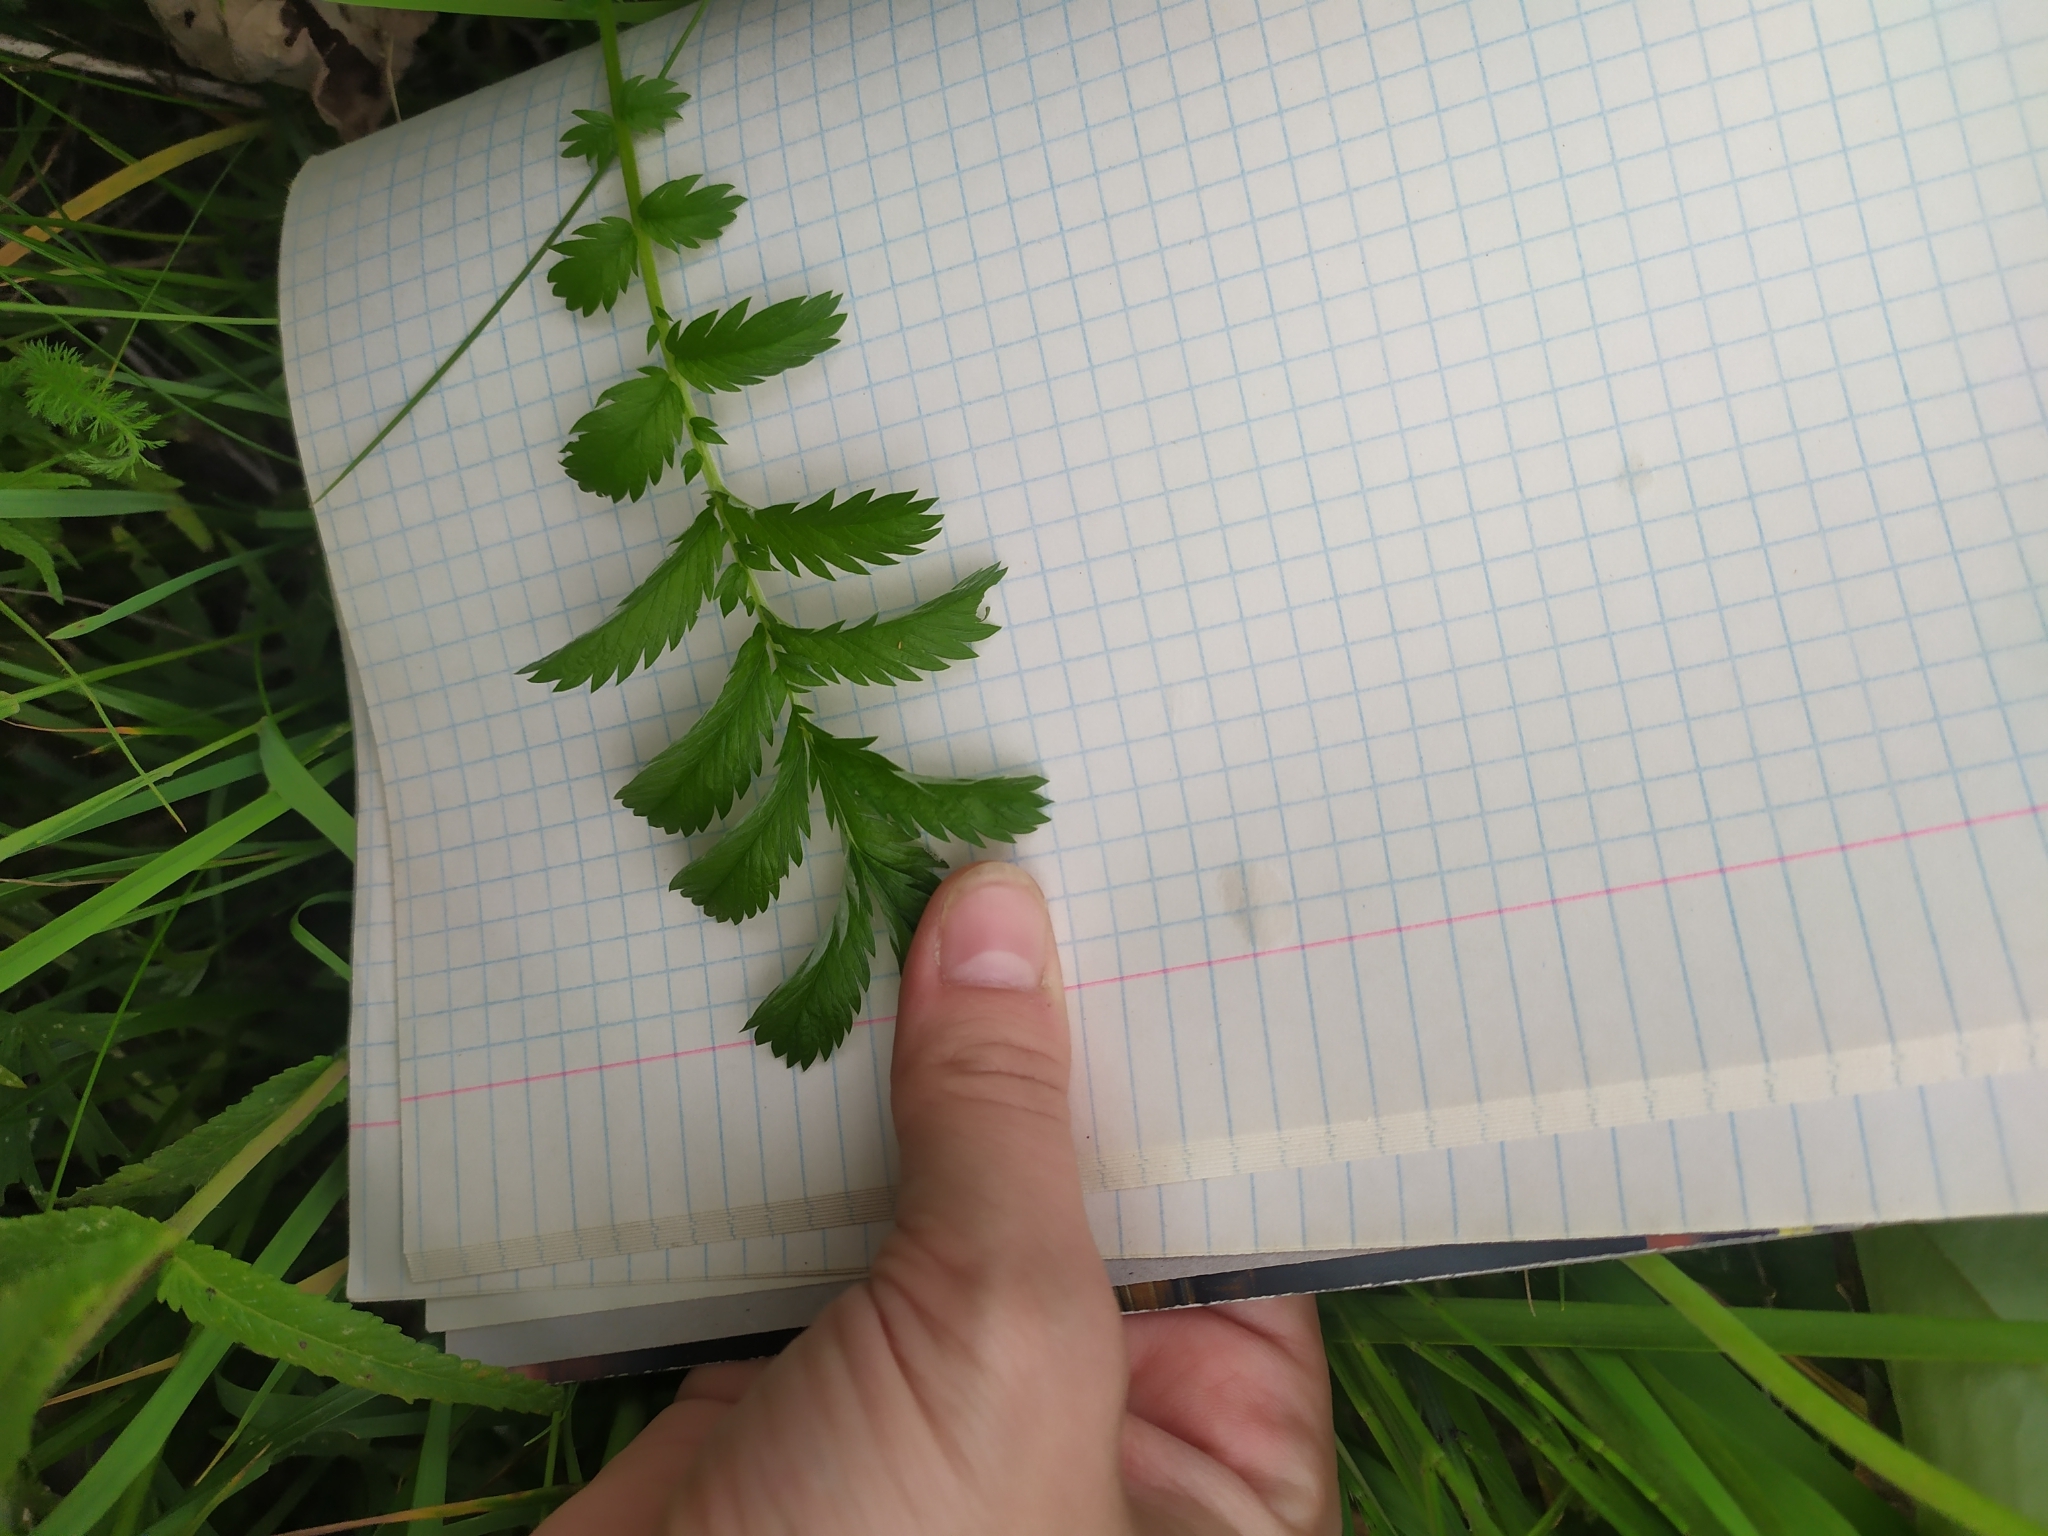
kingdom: Plantae
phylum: Tracheophyta
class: Magnoliopsida
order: Rosales
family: Rosaceae
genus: Argentina
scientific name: Argentina anserina
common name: Common silverweed
